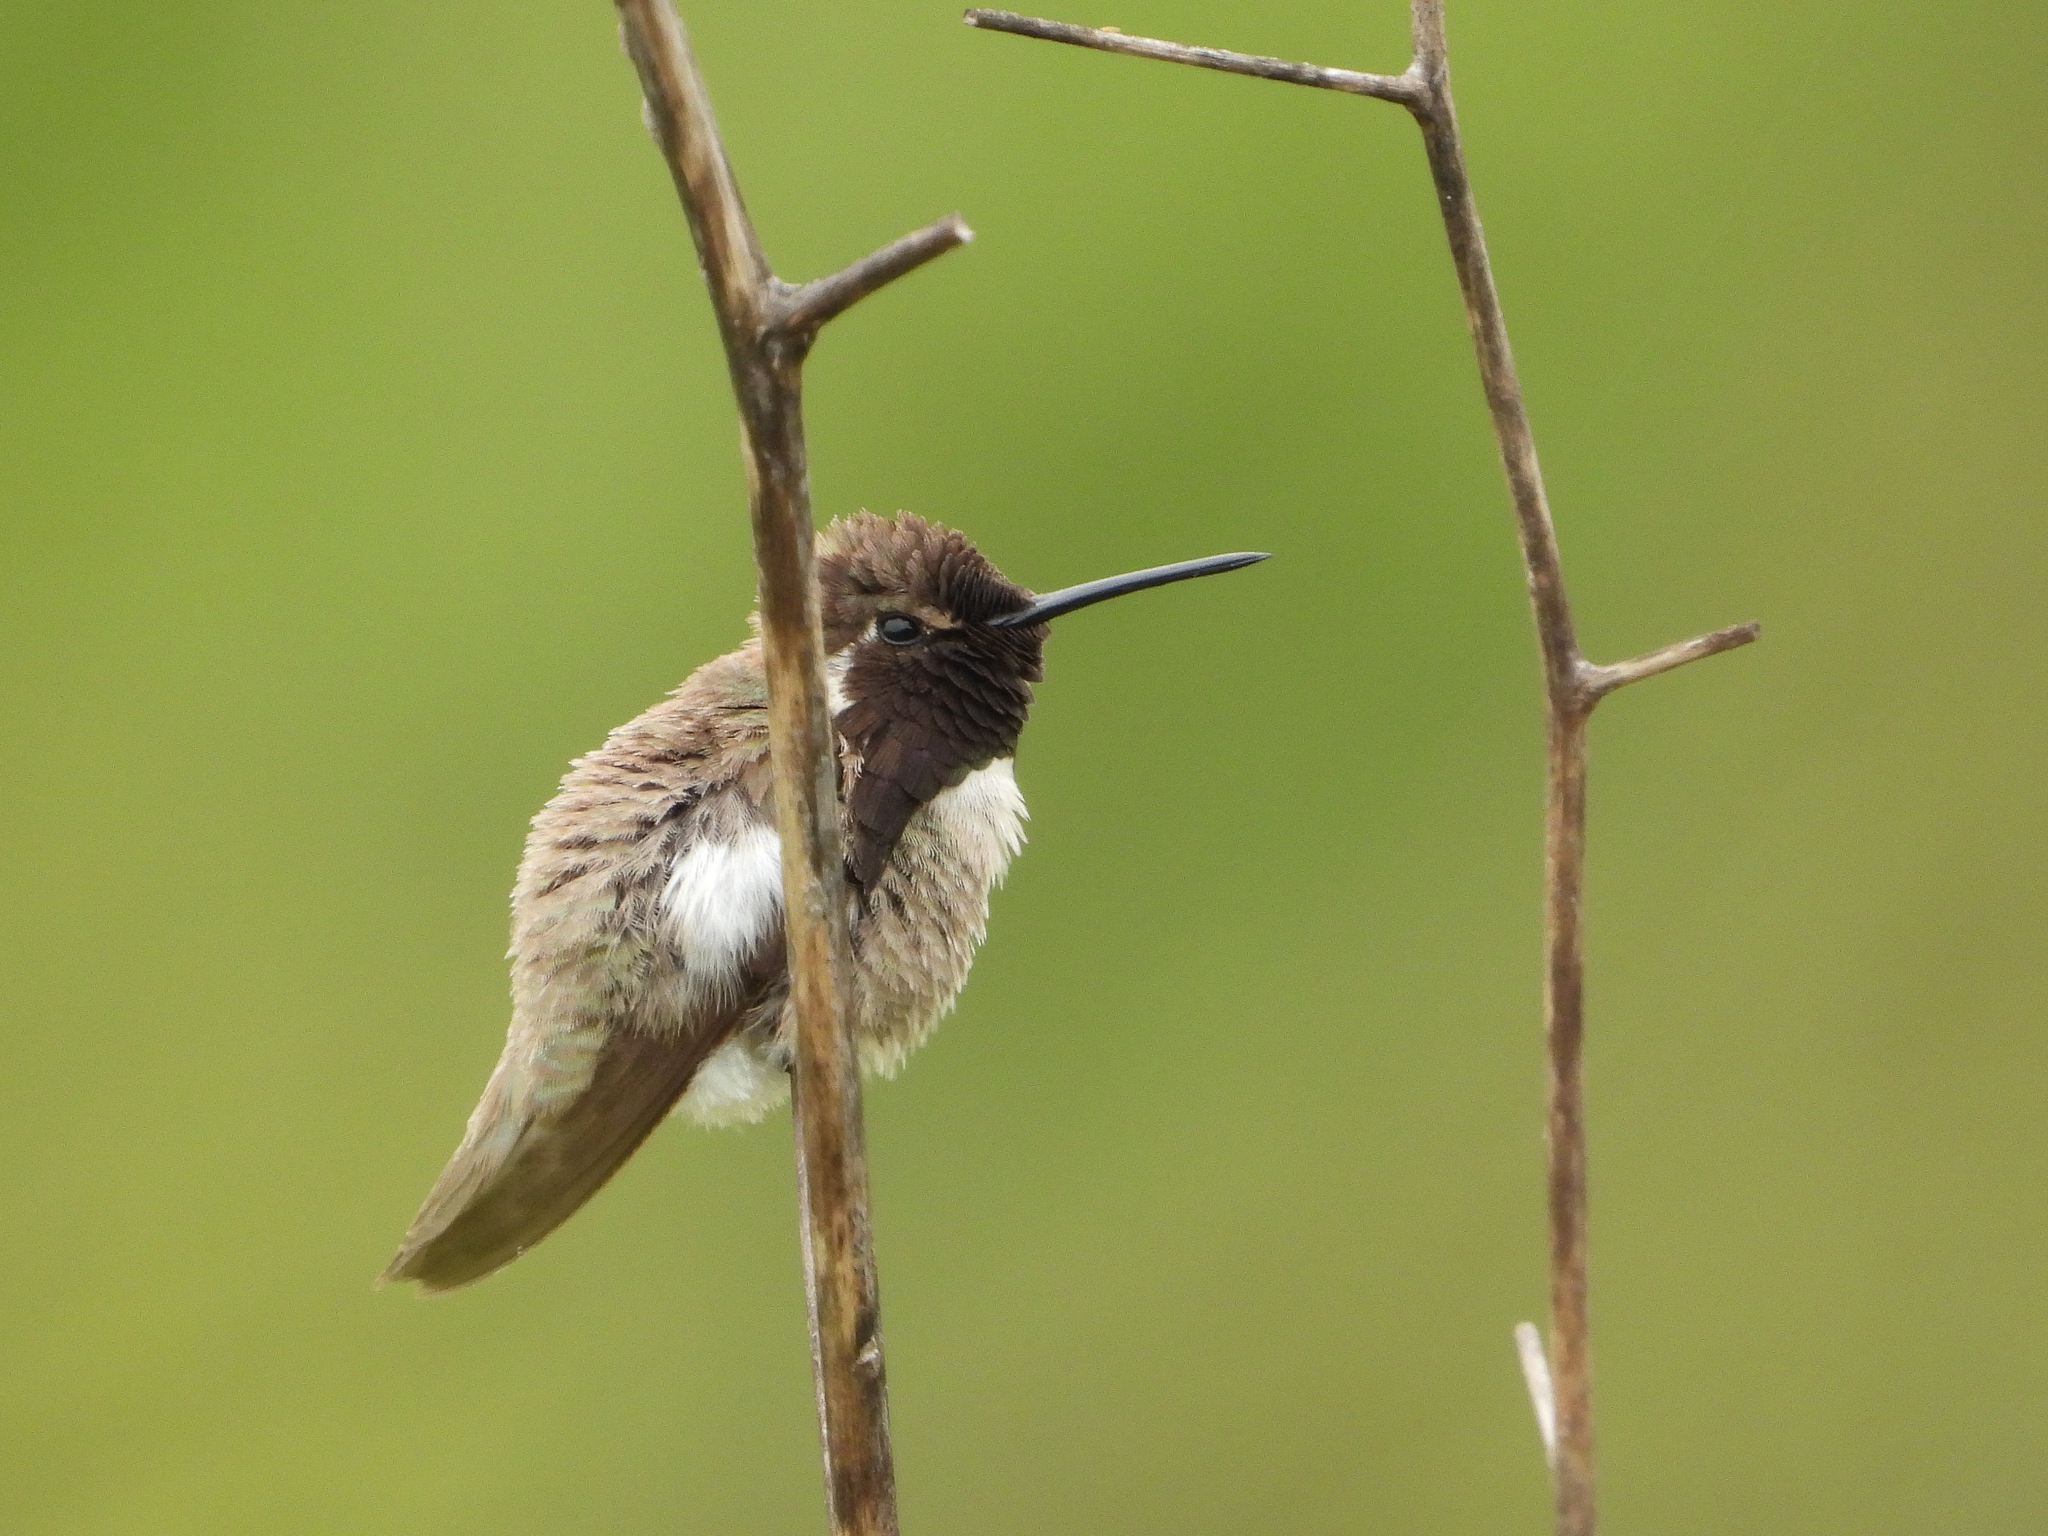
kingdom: Animalia
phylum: Chordata
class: Aves
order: Apodiformes
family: Trochilidae
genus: Calypte
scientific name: Calypte costae
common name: Costa's hummingbird
